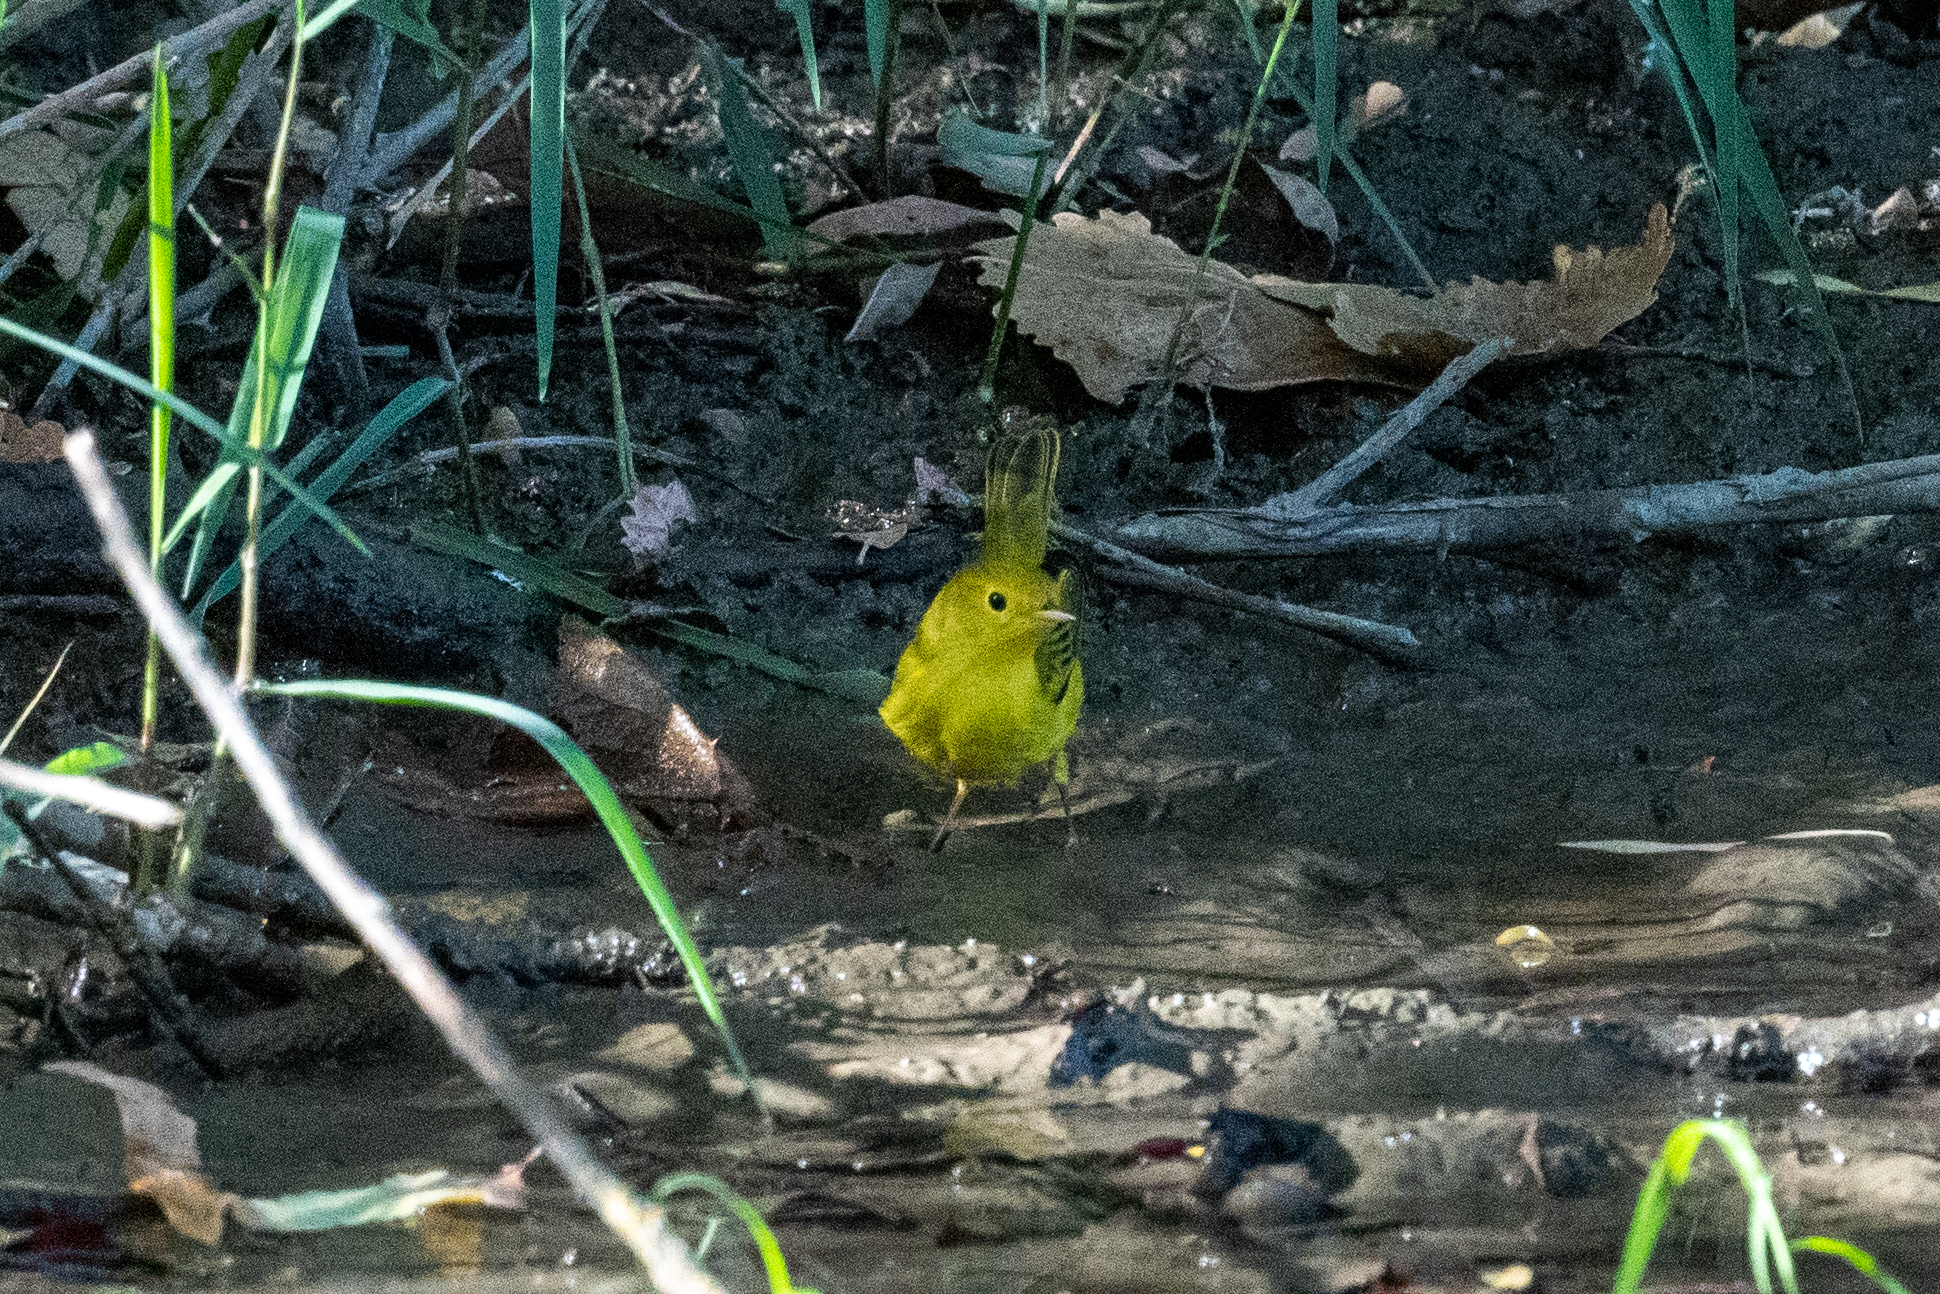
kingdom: Animalia
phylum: Chordata
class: Aves
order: Passeriformes
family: Parulidae
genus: Setophaga
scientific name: Setophaga petechia
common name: Yellow warbler
